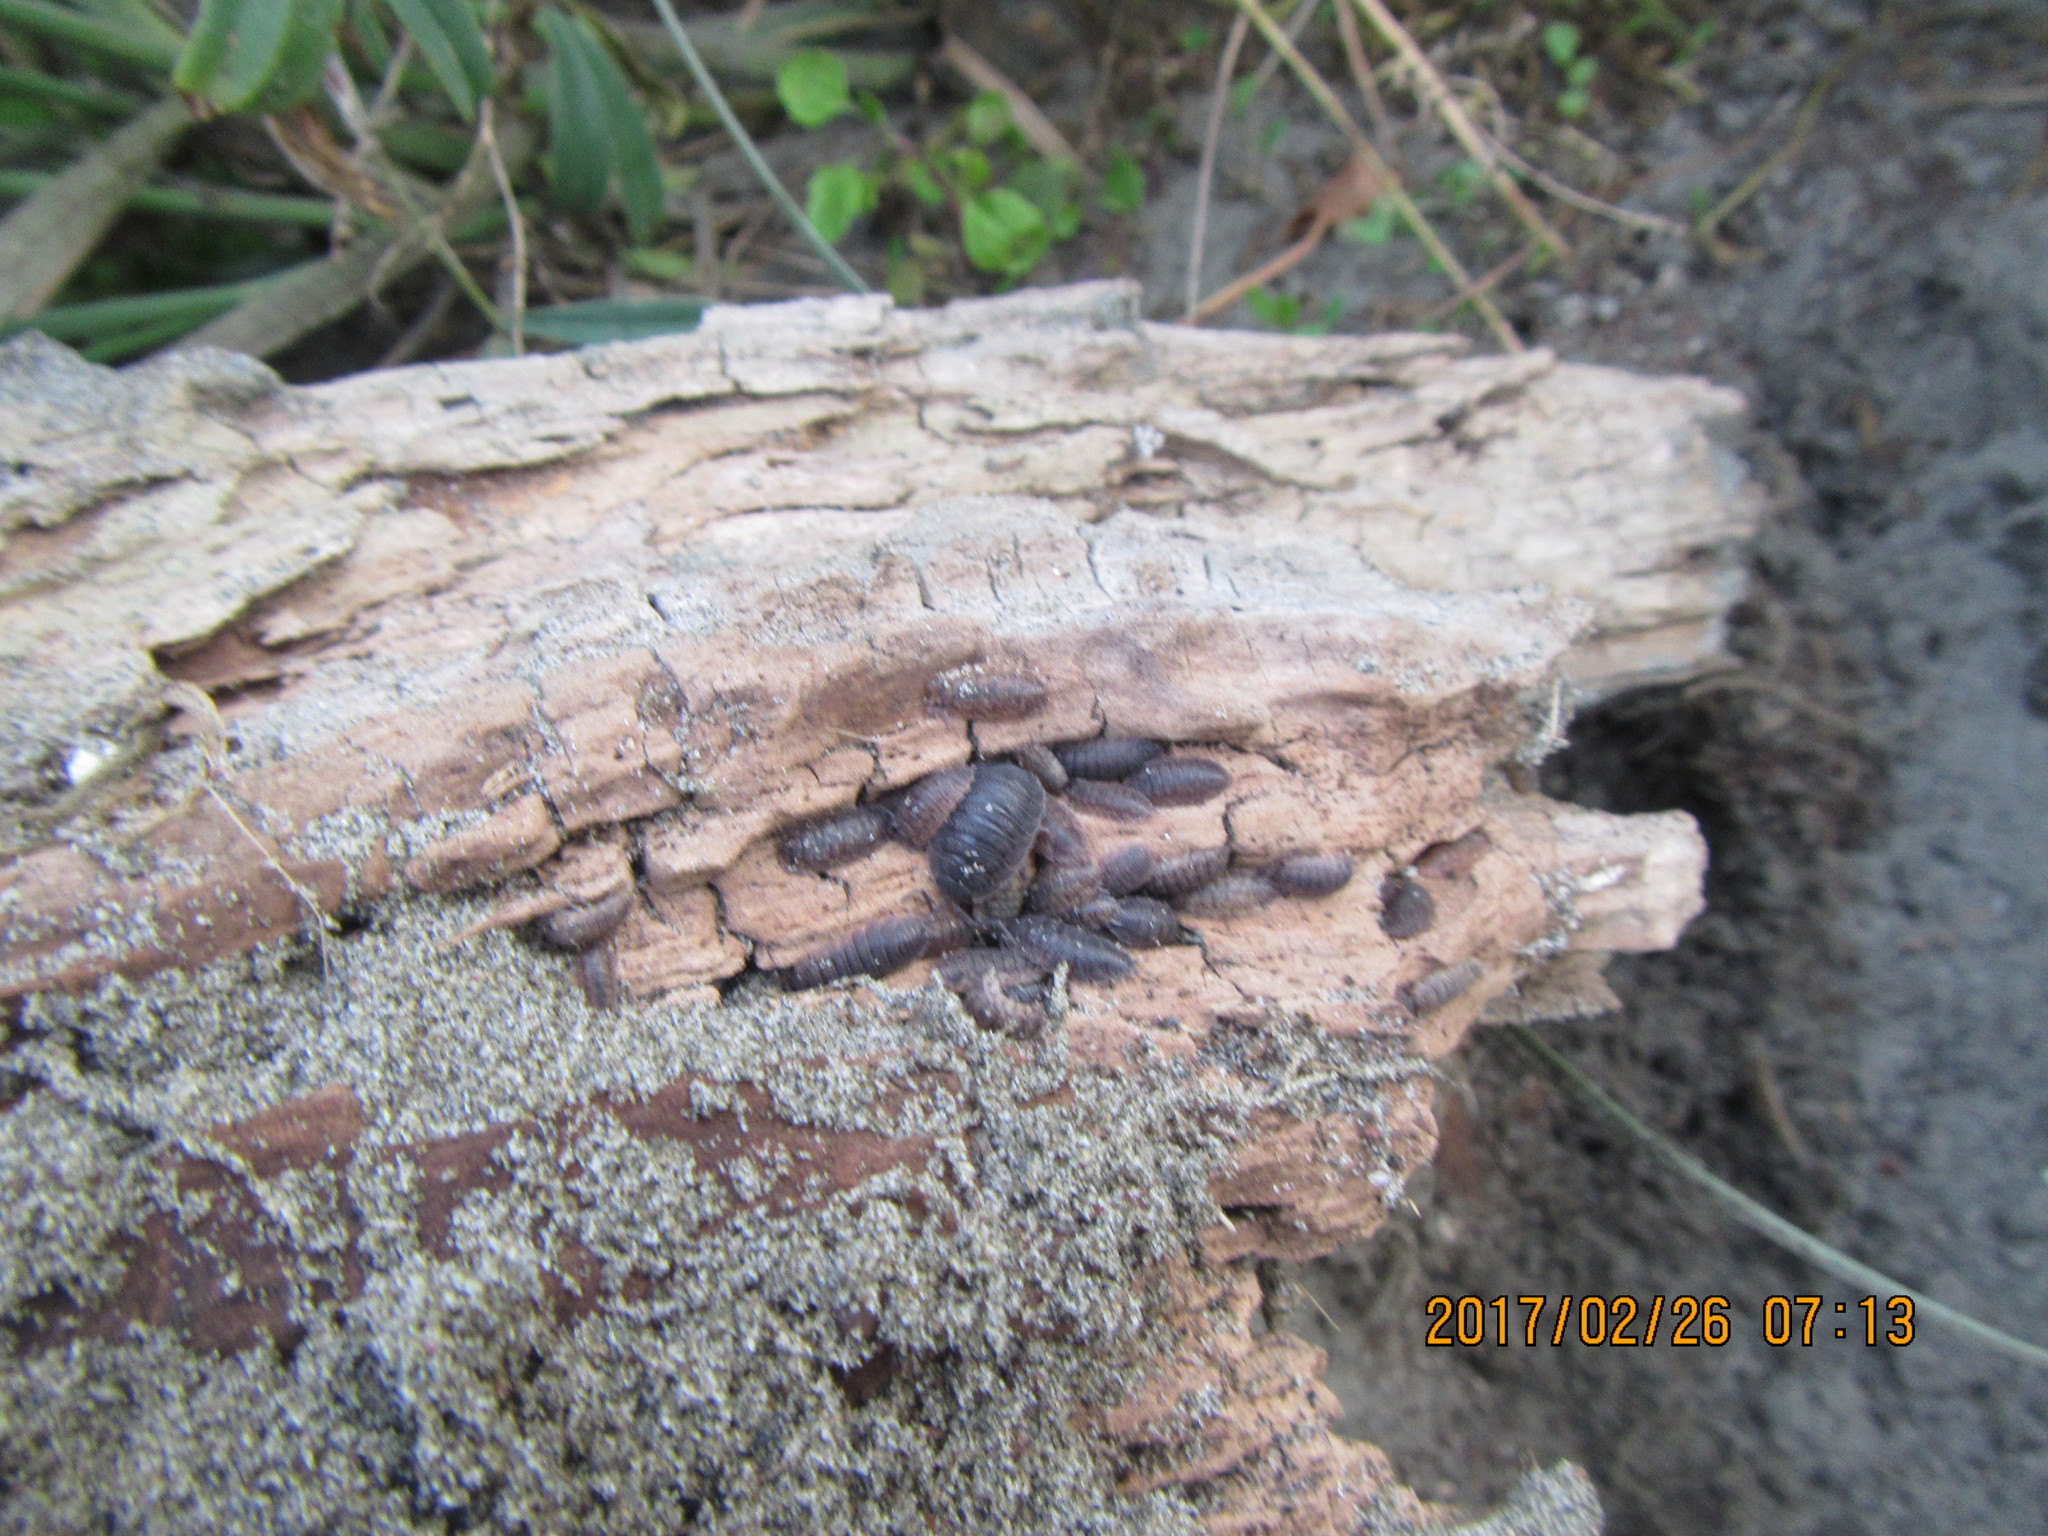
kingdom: Animalia
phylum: Arthropoda
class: Malacostraca
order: Isopoda
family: Porcellionidae
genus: Porcellio
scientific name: Porcellio scaber
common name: Common rough woodlouse
